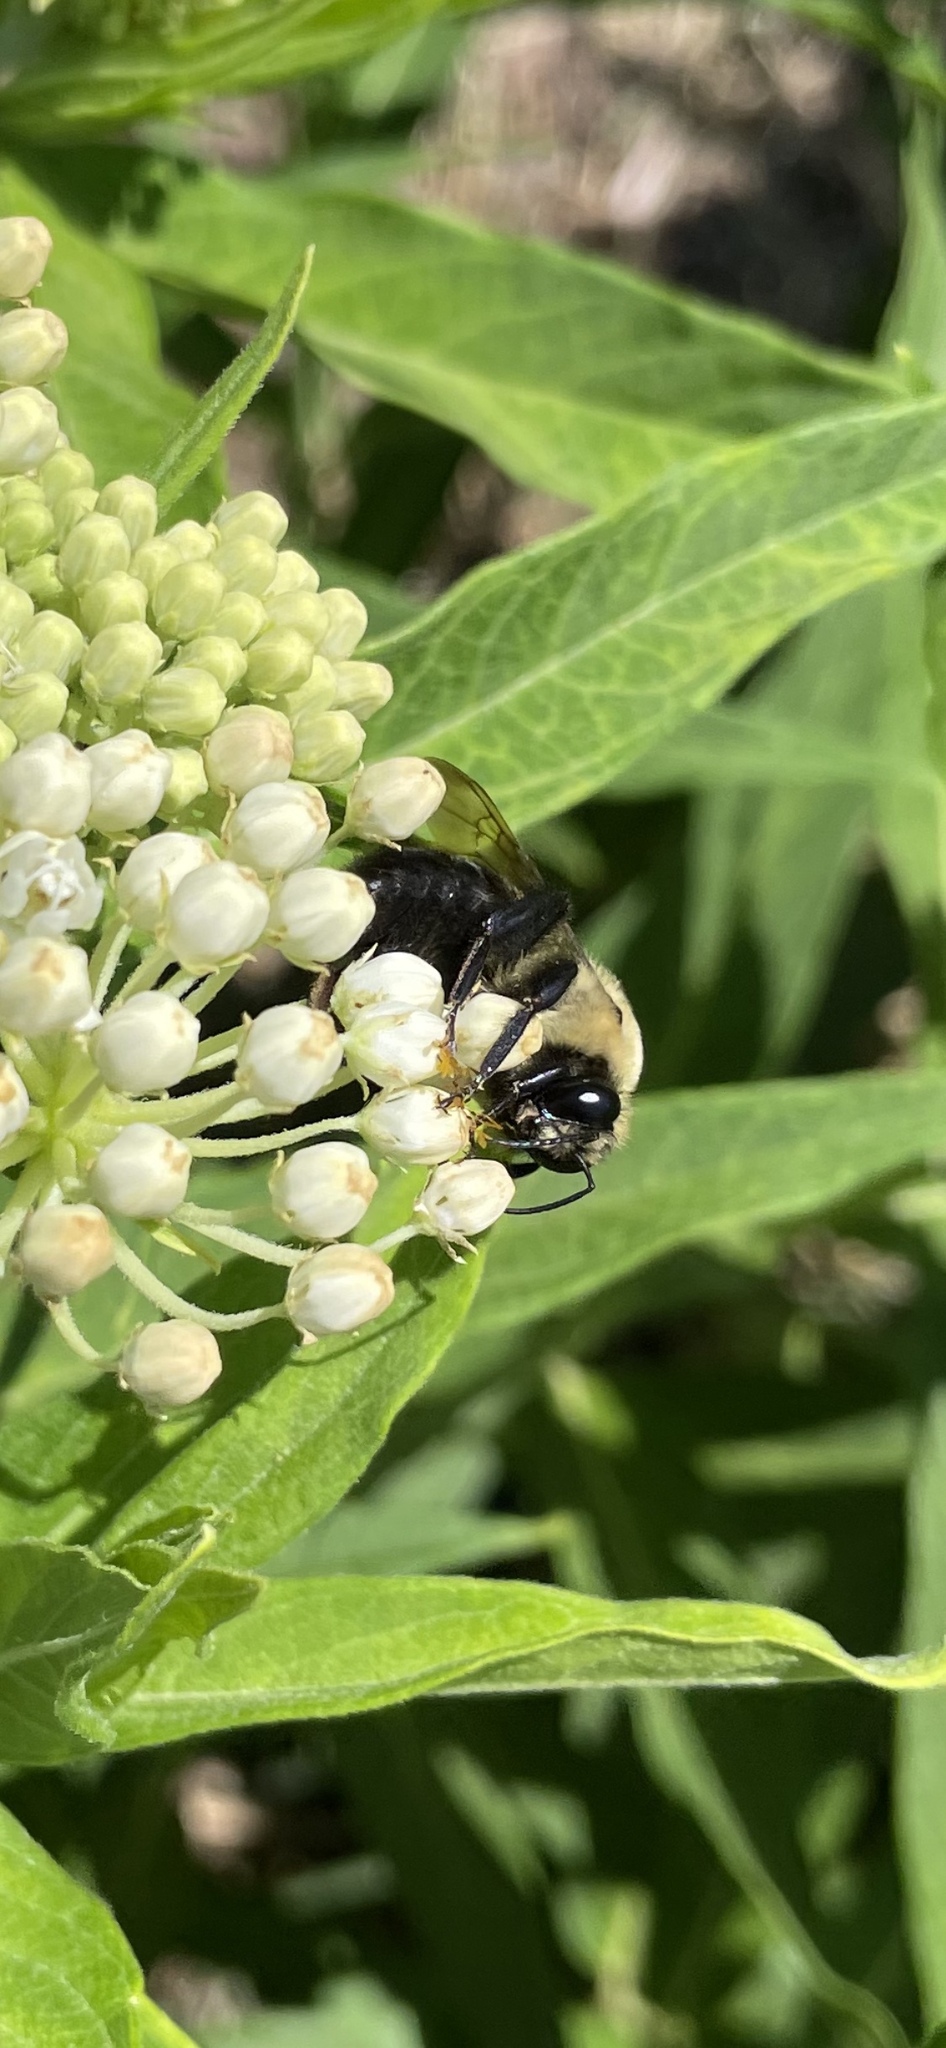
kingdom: Animalia
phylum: Arthropoda
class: Insecta
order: Hymenoptera
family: Apidae
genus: Bombus
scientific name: Bombus griseocollis
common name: Brown-belted bumble bee
